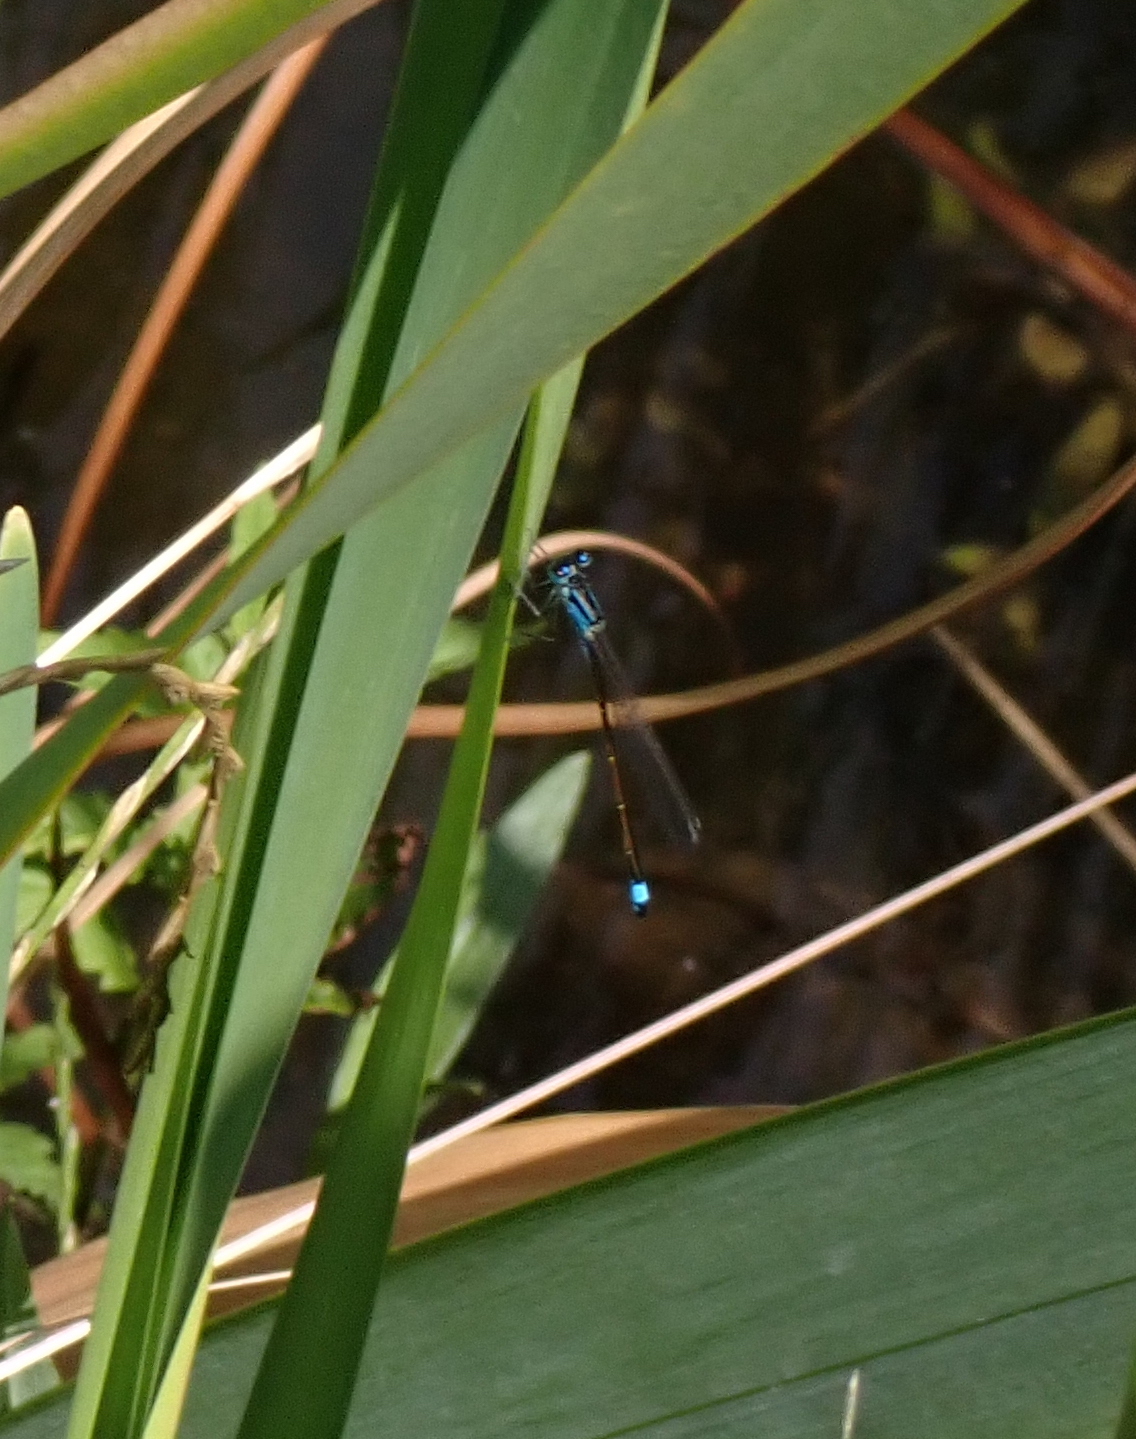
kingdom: Animalia
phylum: Arthropoda
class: Insecta
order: Odonata
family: Coenagrionidae
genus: Ischnura
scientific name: Ischnura elegans
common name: Blue-tailed damselfly
